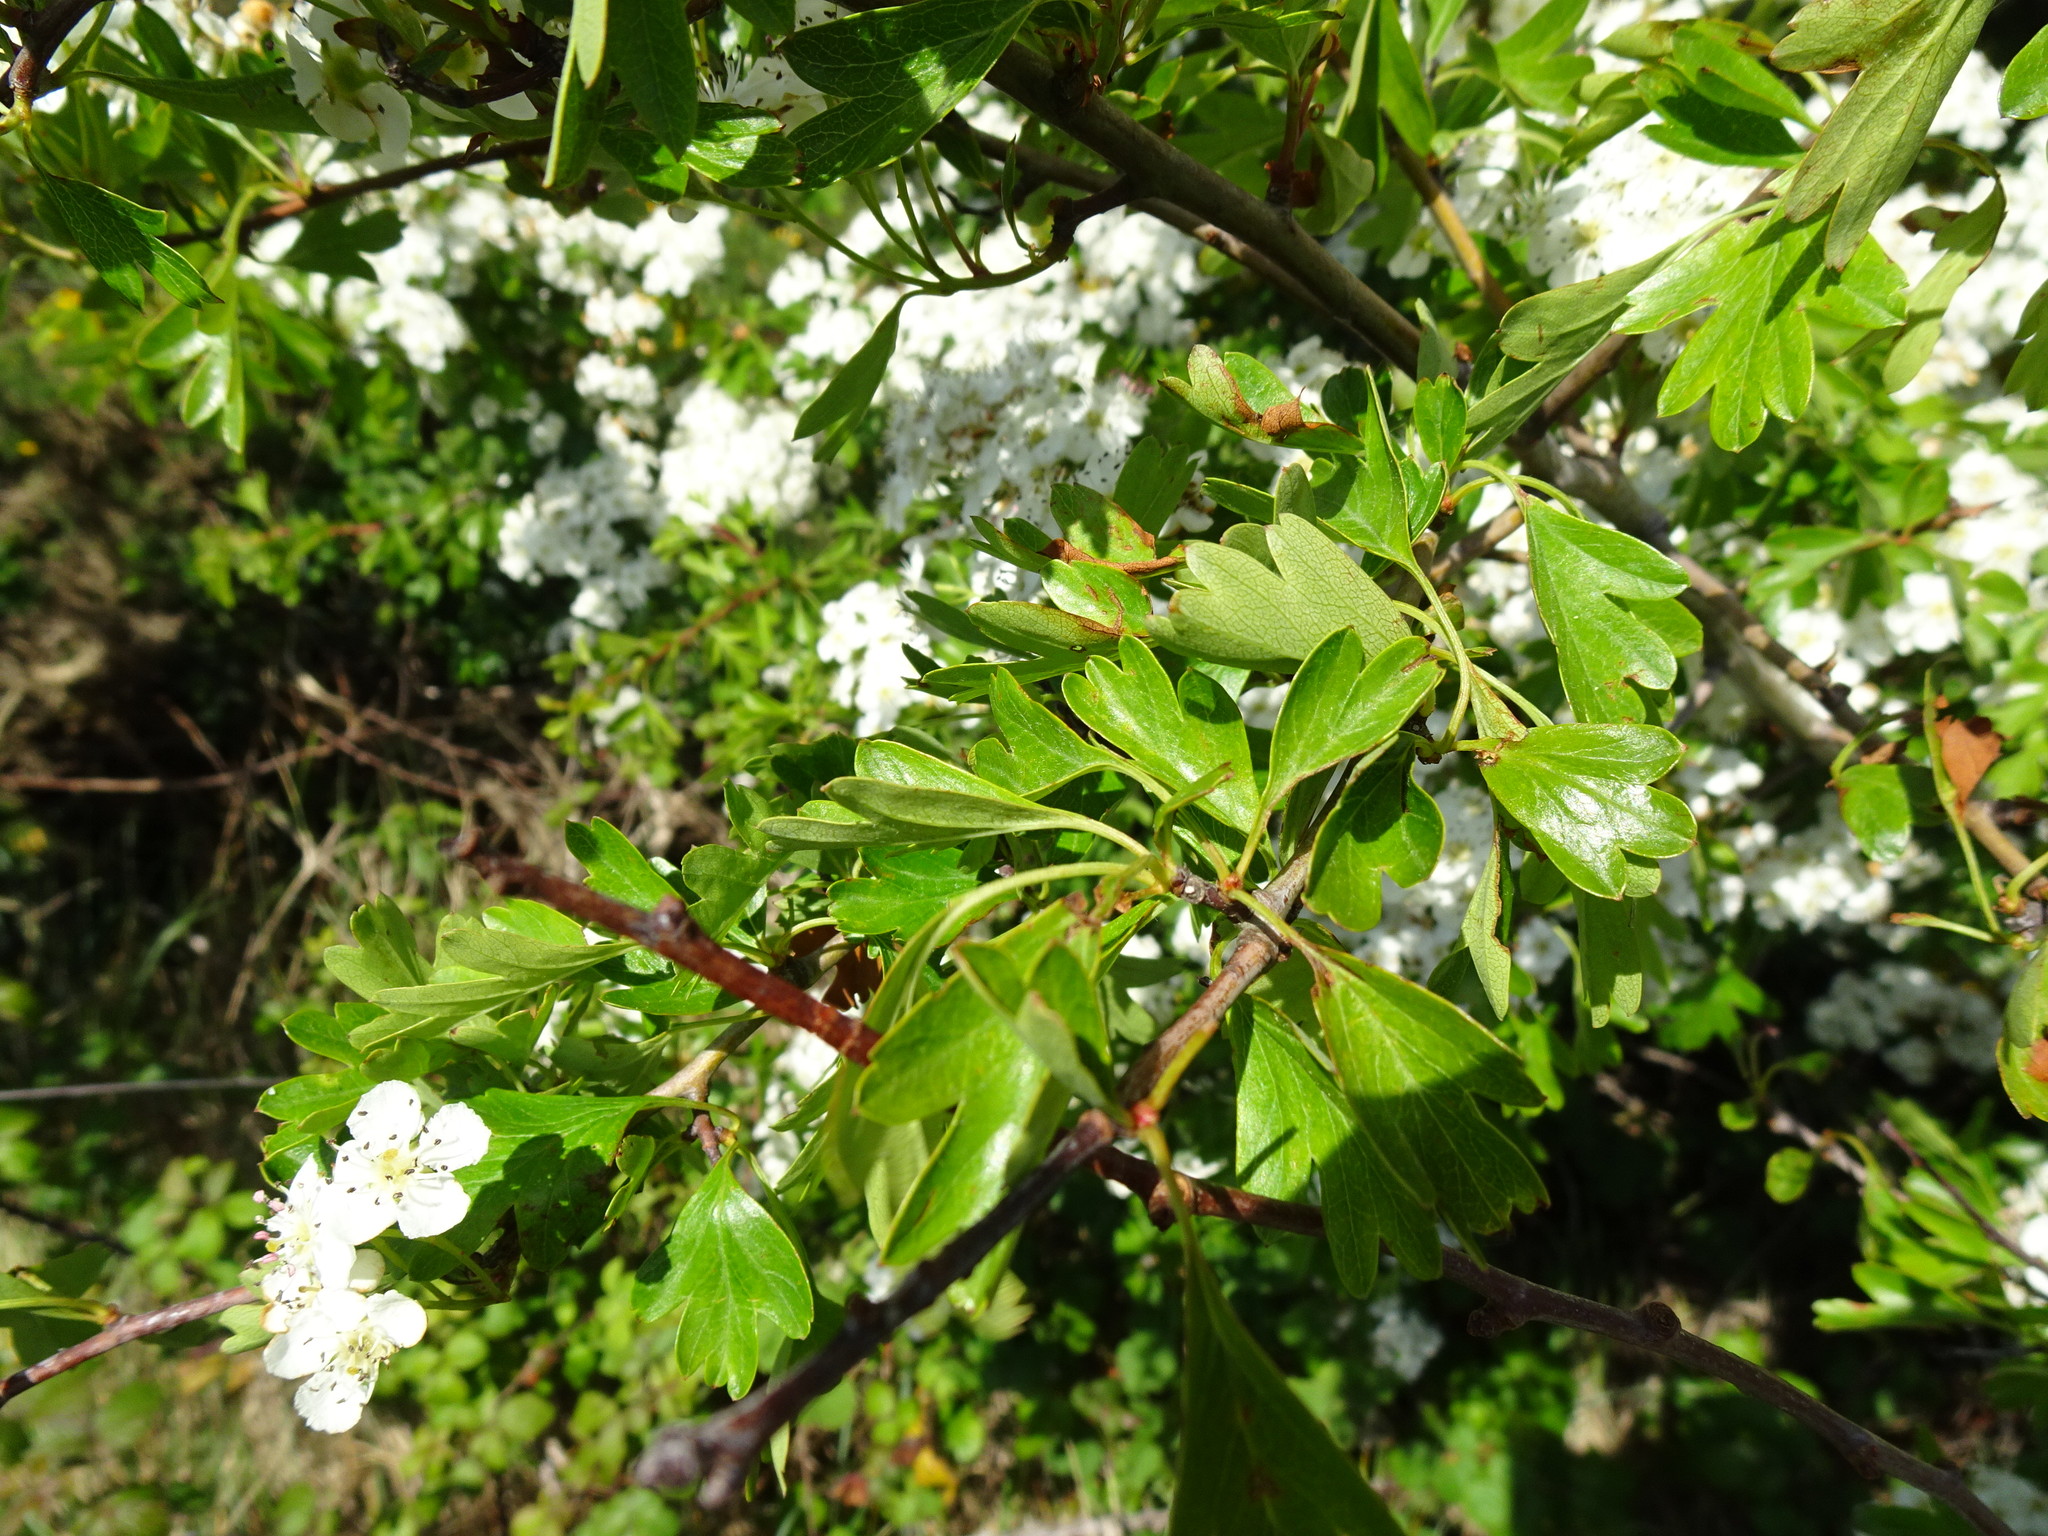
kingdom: Plantae
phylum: Tracheophyta
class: Magnoliopsida
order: Rosales
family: Rosaceae
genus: Crataegus
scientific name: Crataegus monogyna
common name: Hawthorn
